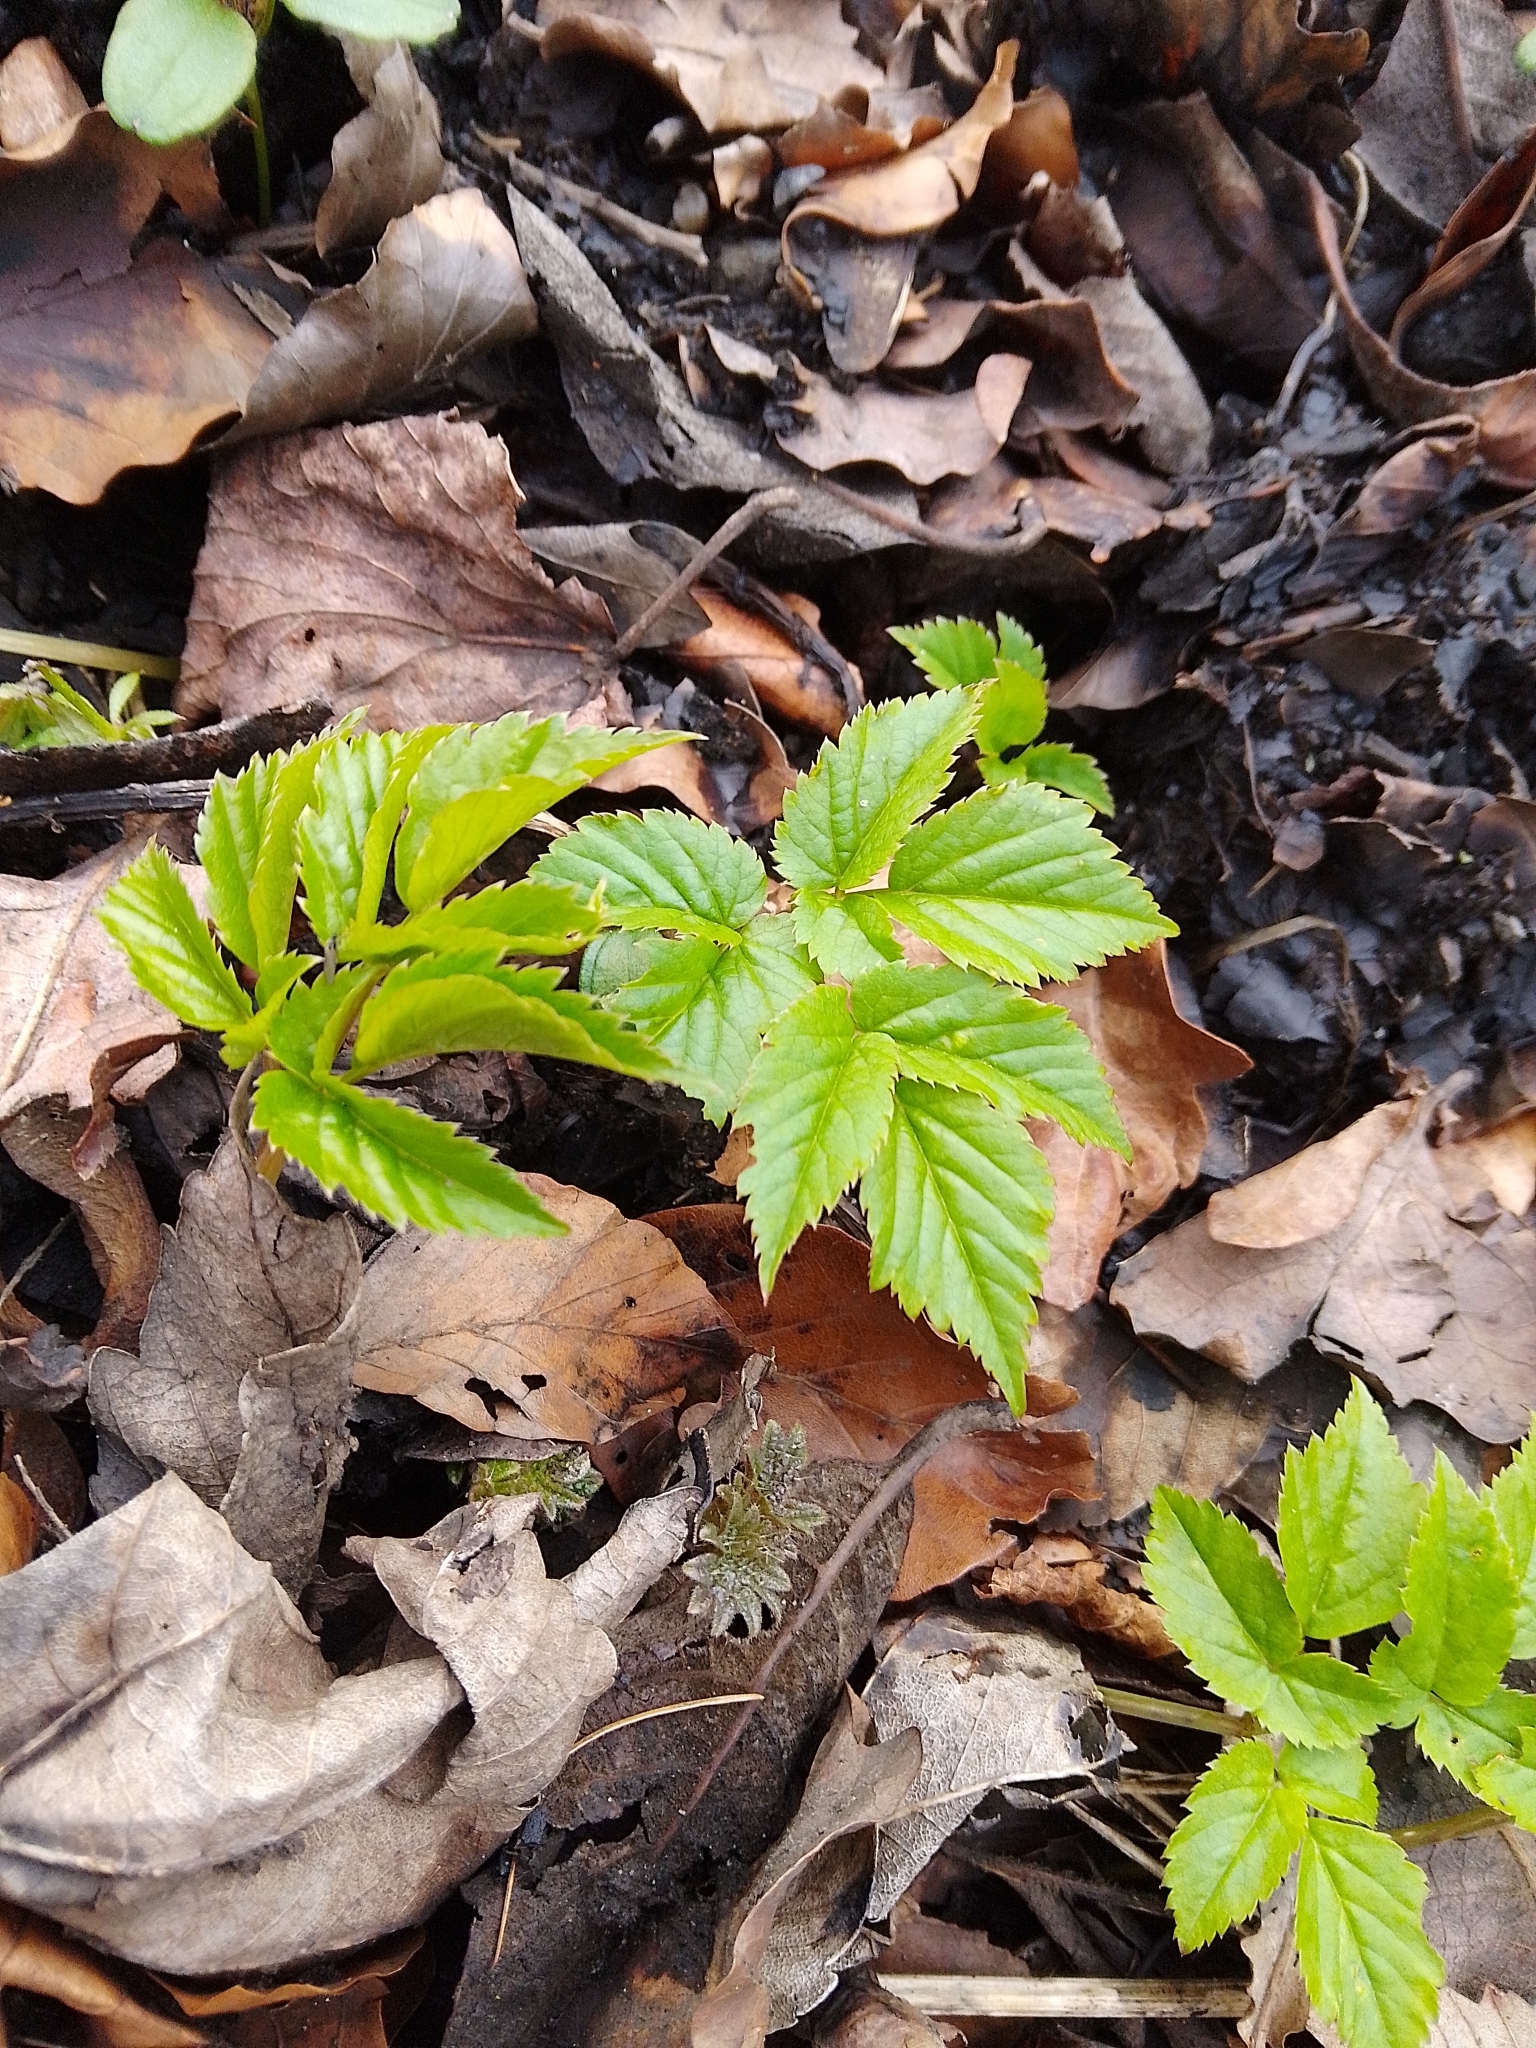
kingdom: Plantae
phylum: Tracheophyta
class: Magnoliopsida
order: Apiales
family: Apiaceae
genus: Aegopodium
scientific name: Aegopodium podagraria
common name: Ground-elder
